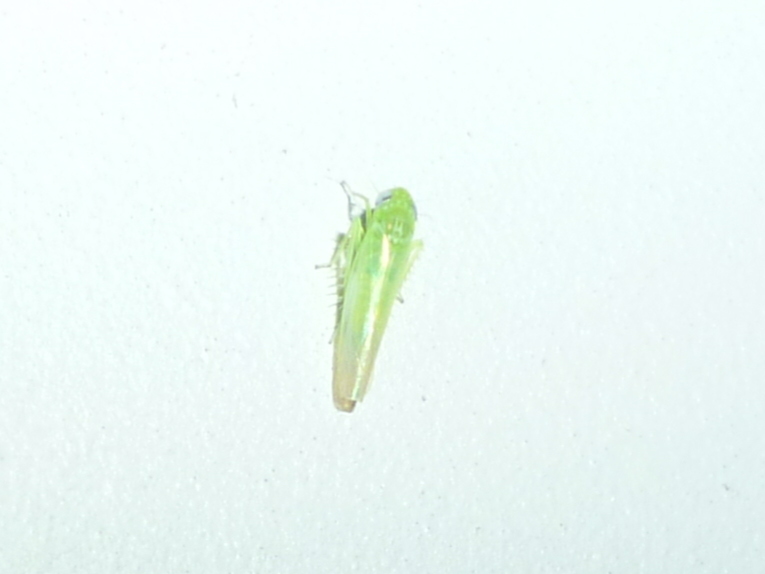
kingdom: Animalia
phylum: Arthropoda
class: Insecta
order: Hemiptera
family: Cicadellidae
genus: Empoasca
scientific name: Empoasca fabae
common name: Potato leafhopper
